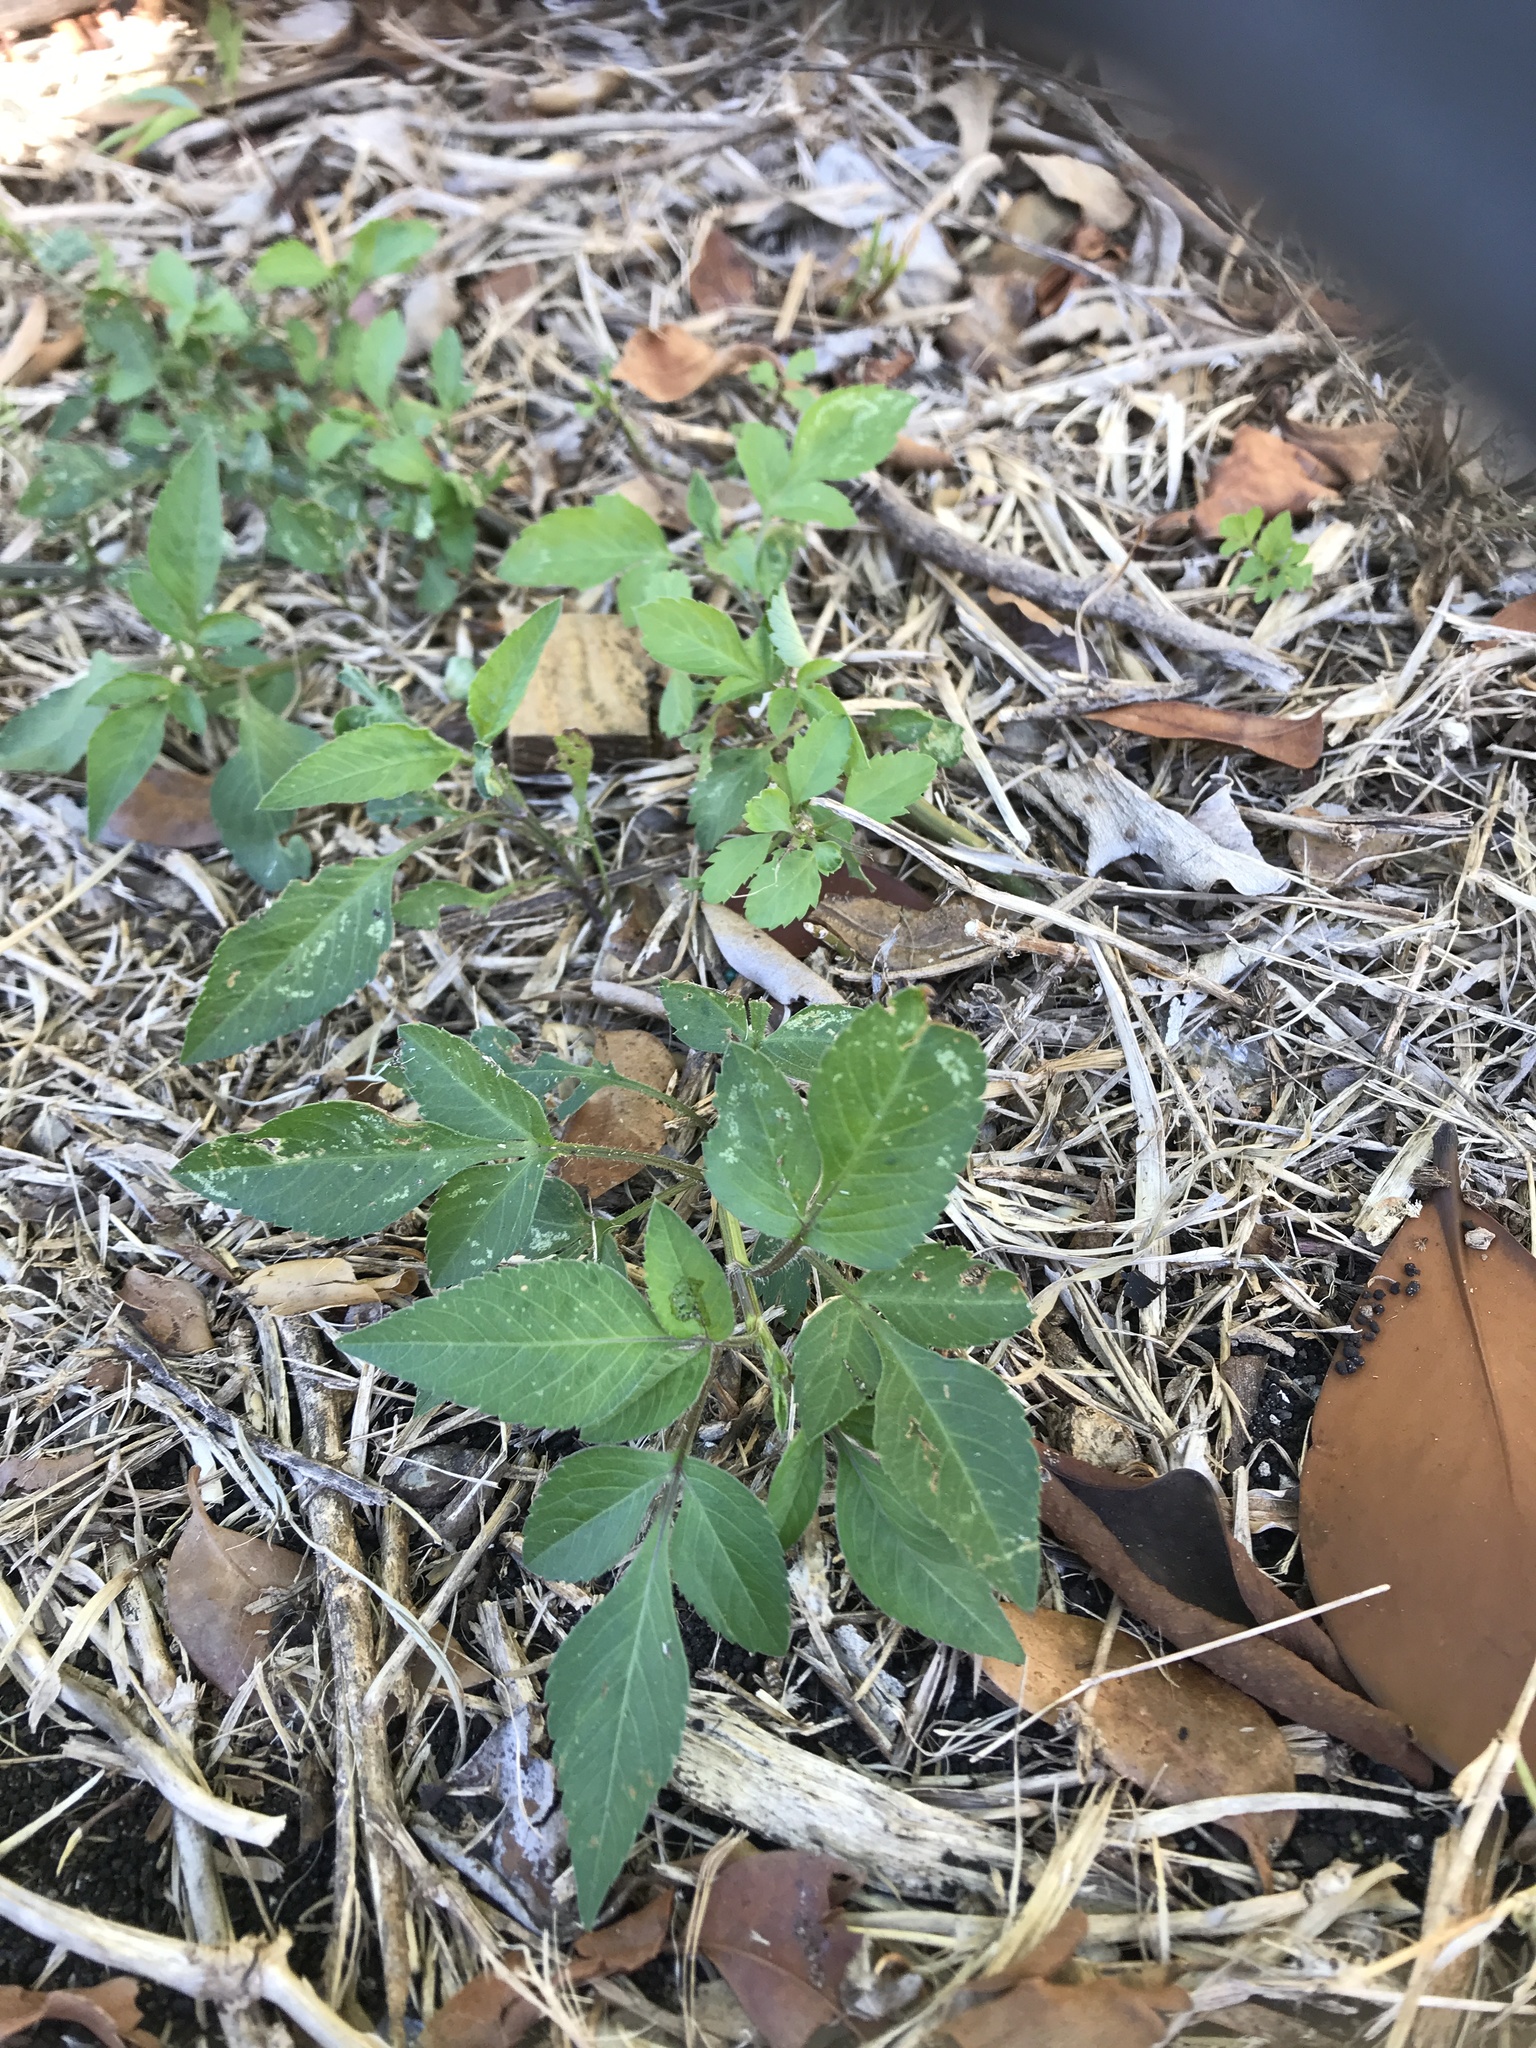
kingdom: Plantae
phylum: Tracheophyta
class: Magnoliopsida
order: Asterales
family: Asteraceae
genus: Bidens
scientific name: Bidens alba
